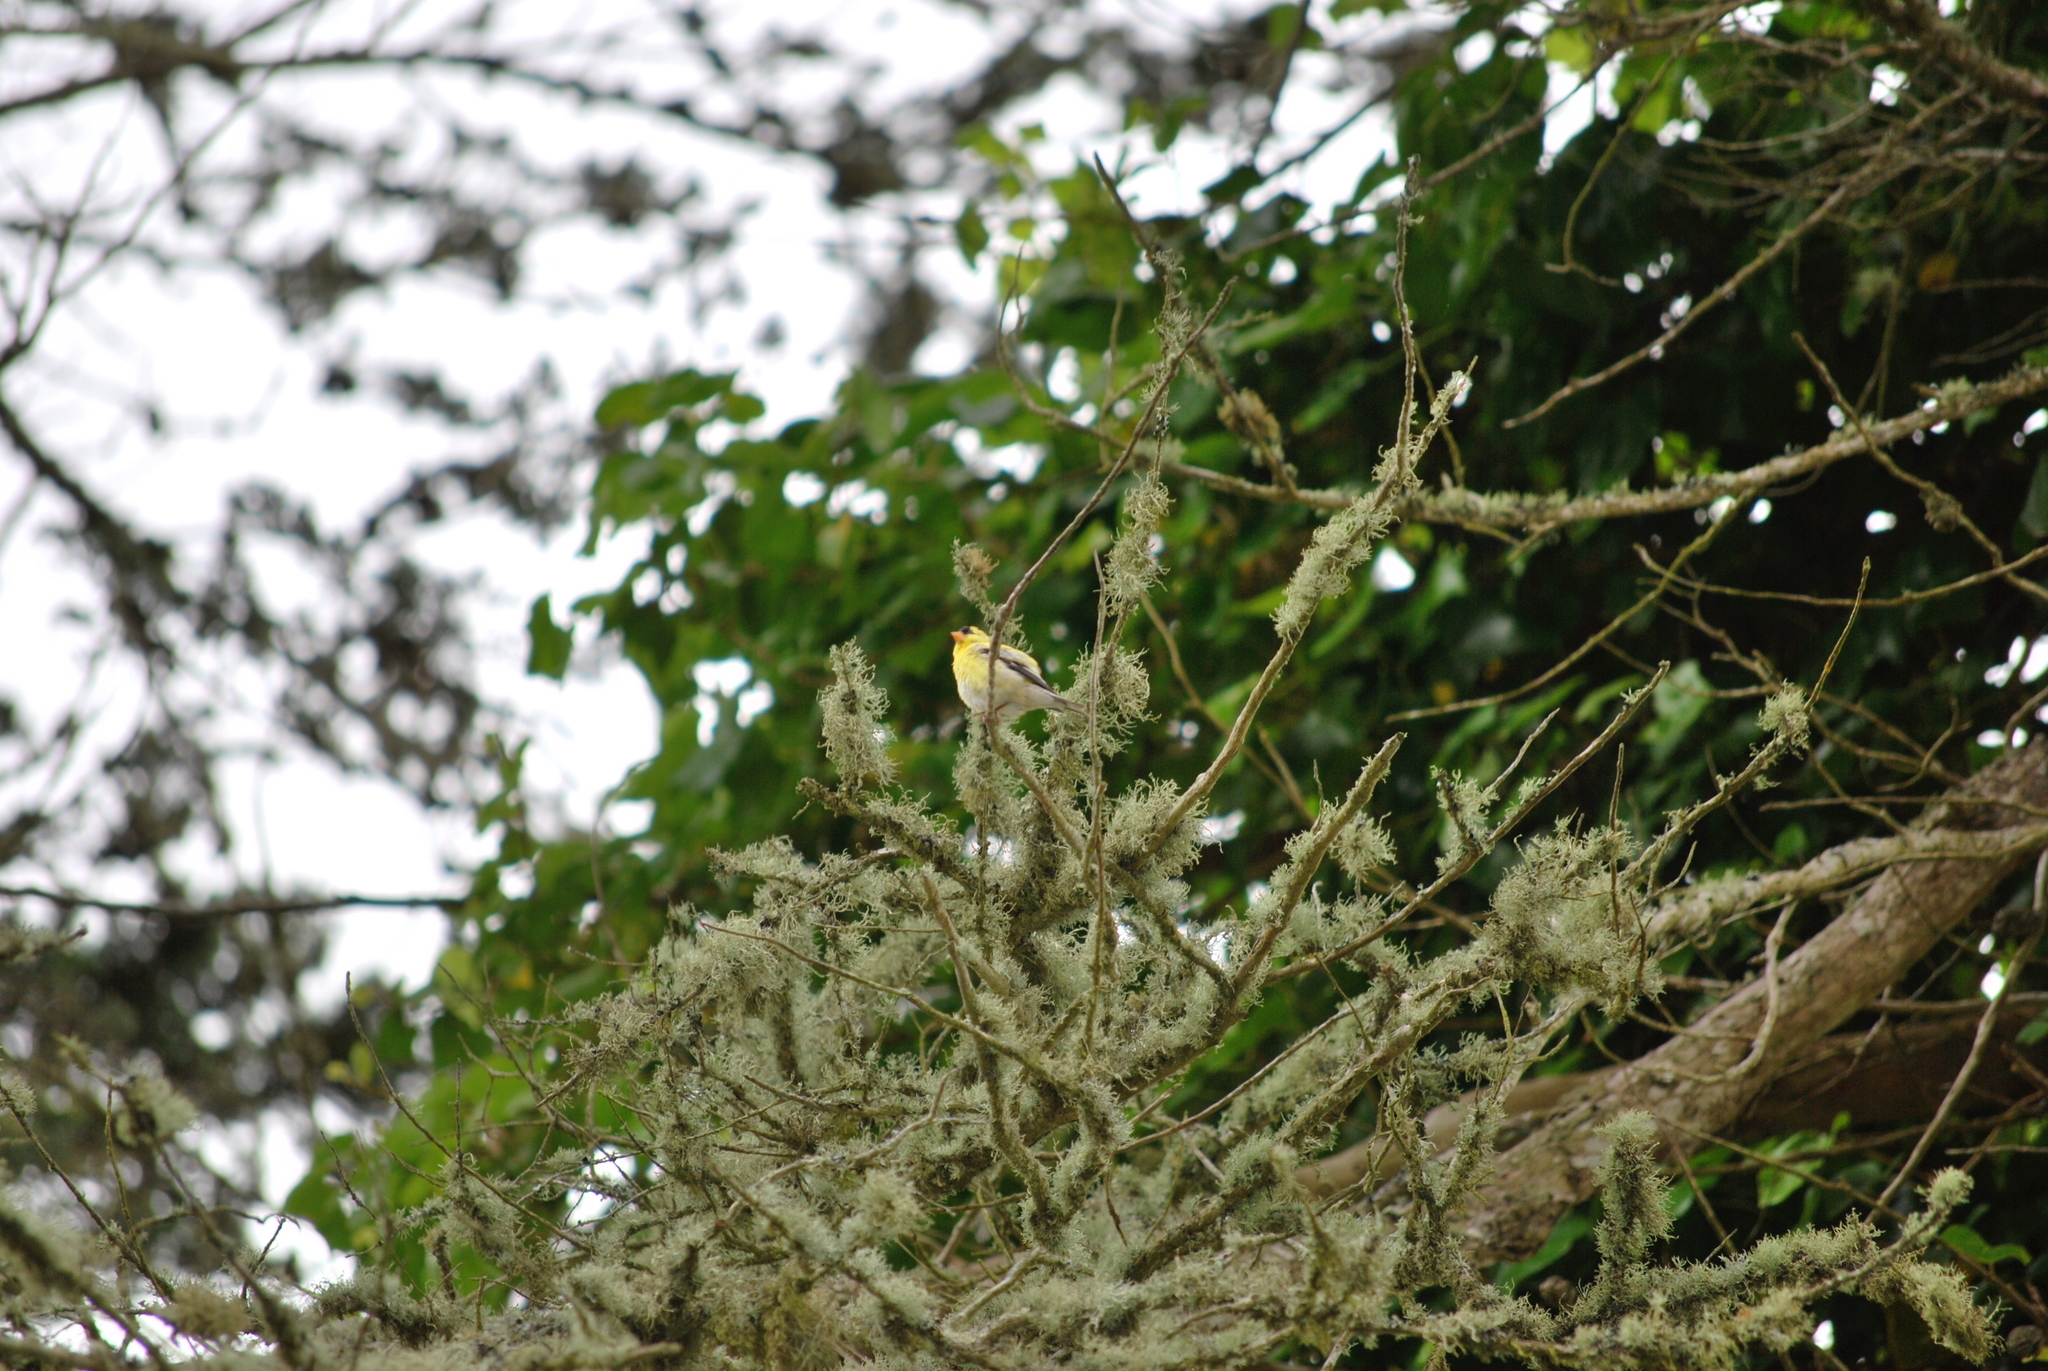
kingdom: Animalia
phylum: Chordata
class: Aves
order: Passeriformes
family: Fringillidae
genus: Spinus
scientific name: Spinus tristis
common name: American goldfinch
